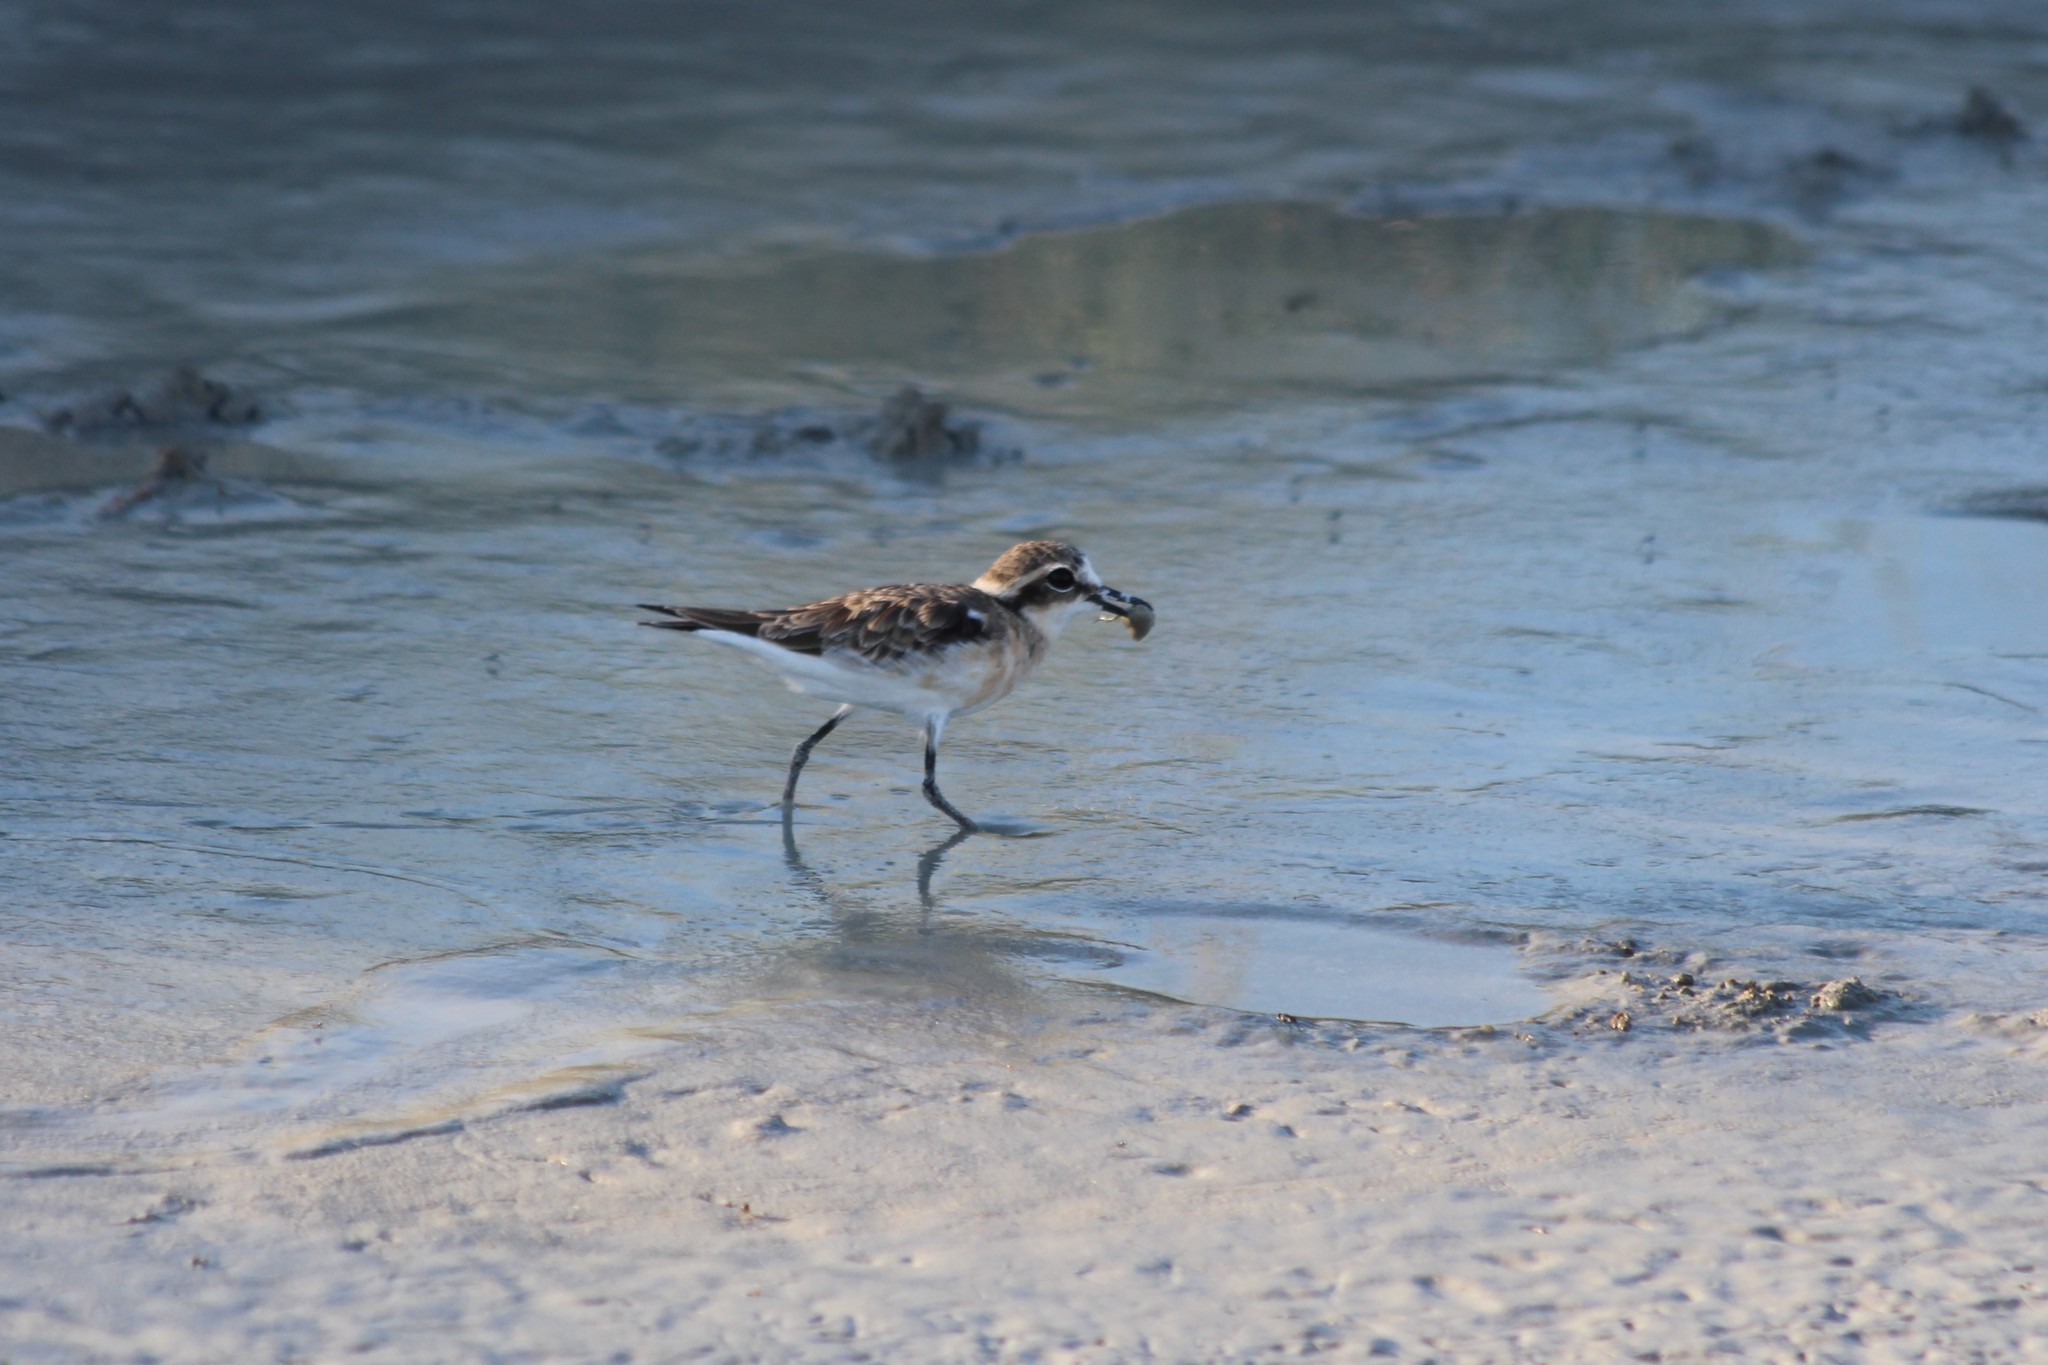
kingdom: Animalia
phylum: Chordata
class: Aves
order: Charadriiformes
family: Charadriidae
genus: Anarhynchus
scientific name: Anarhynchus
